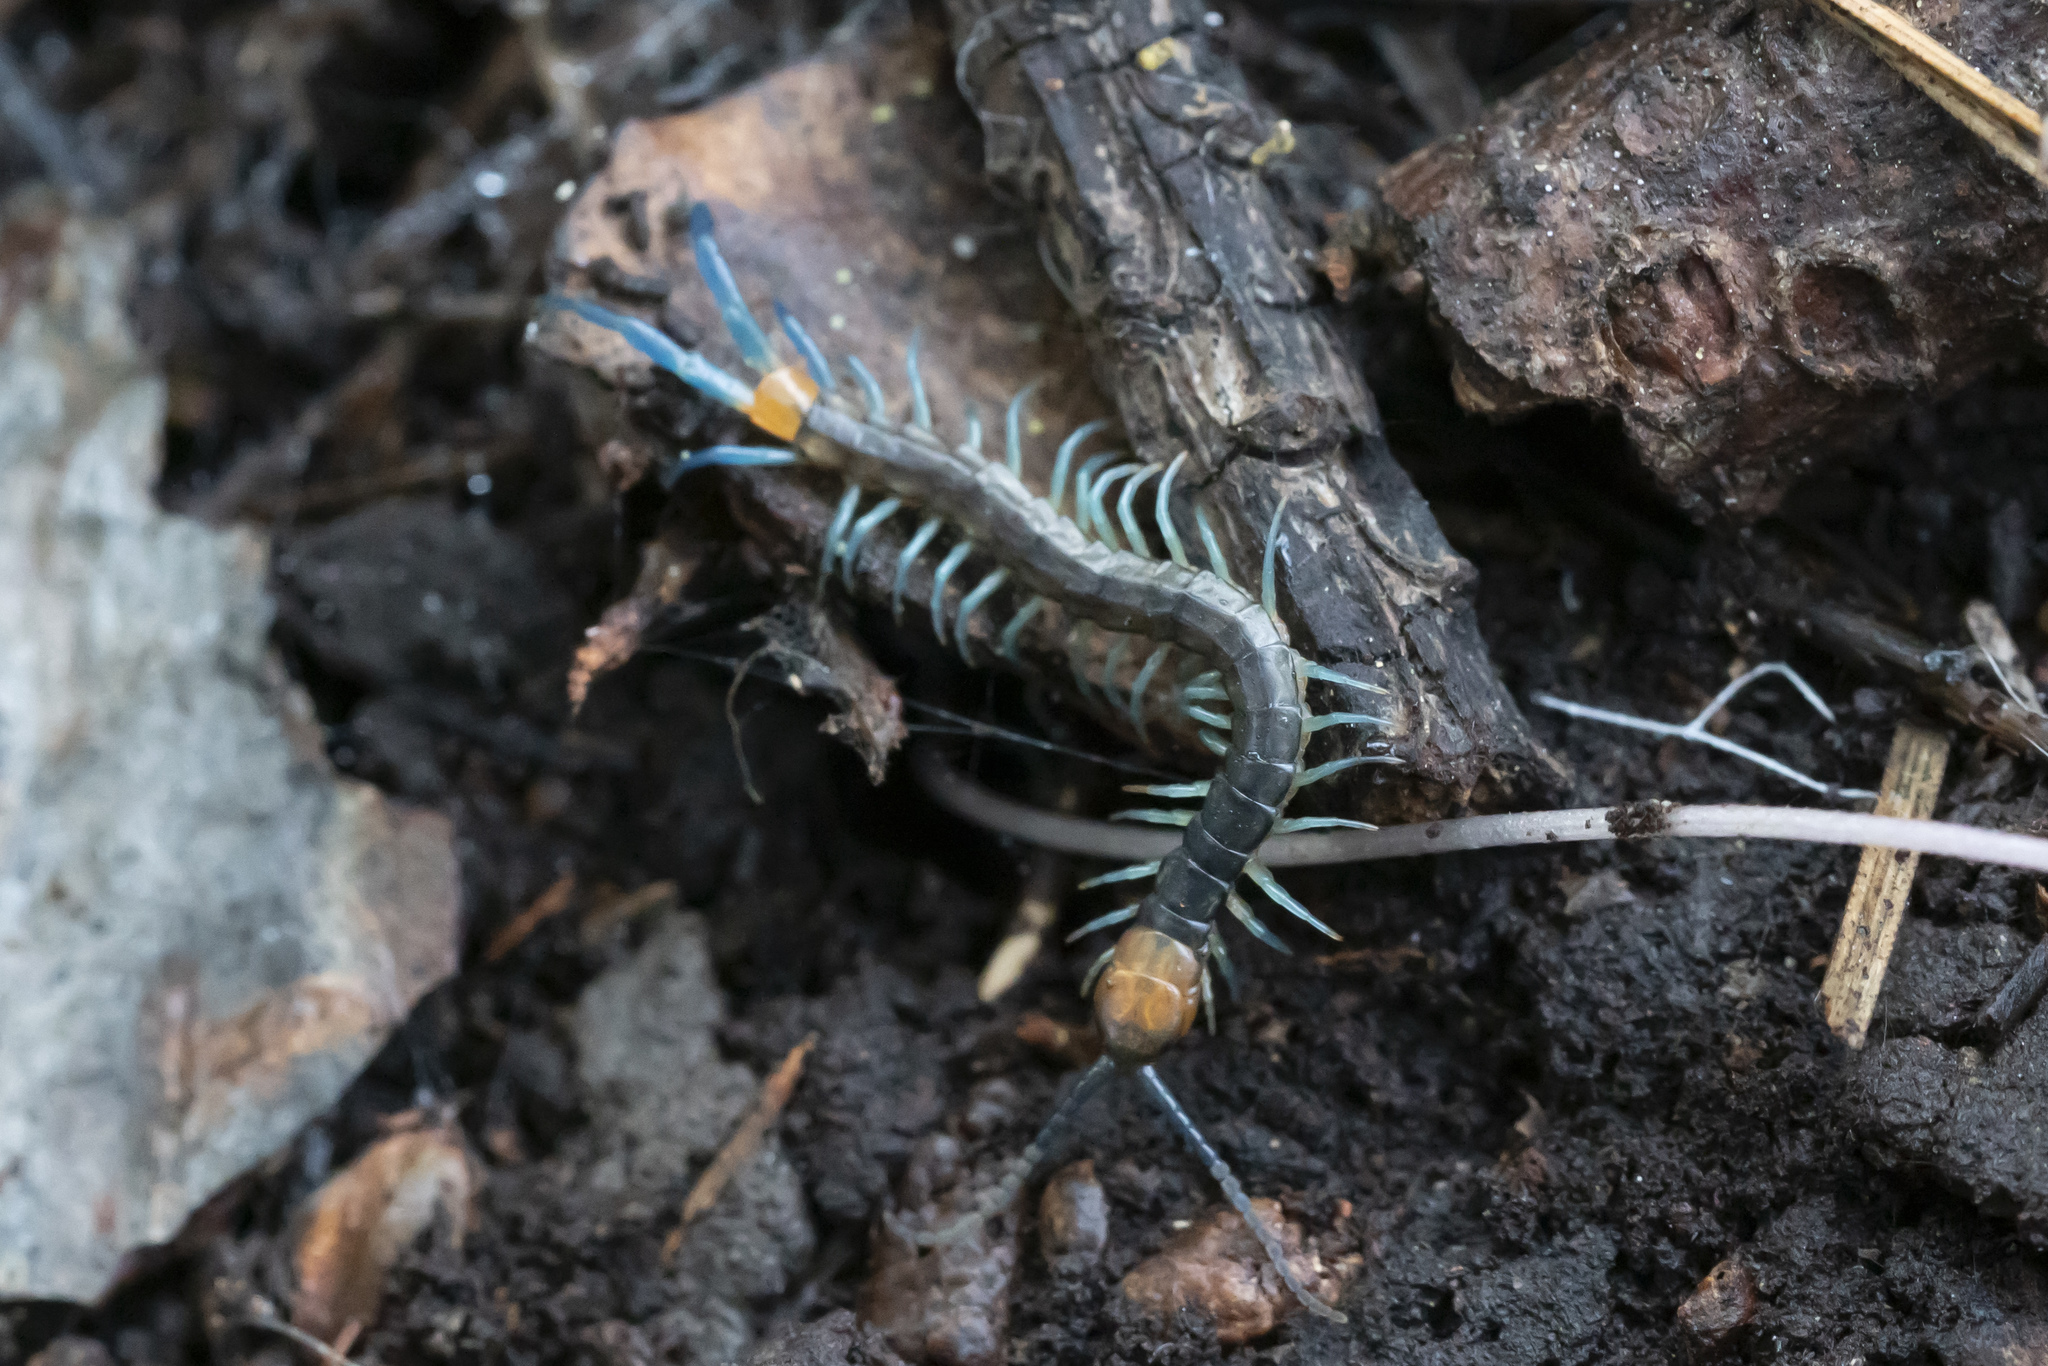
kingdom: Animalia
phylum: Arthropoda
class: Chilopoda
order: Scolopendromorpha
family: Scolopendridae
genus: Scolopendra
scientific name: Scolopendra cingulata
